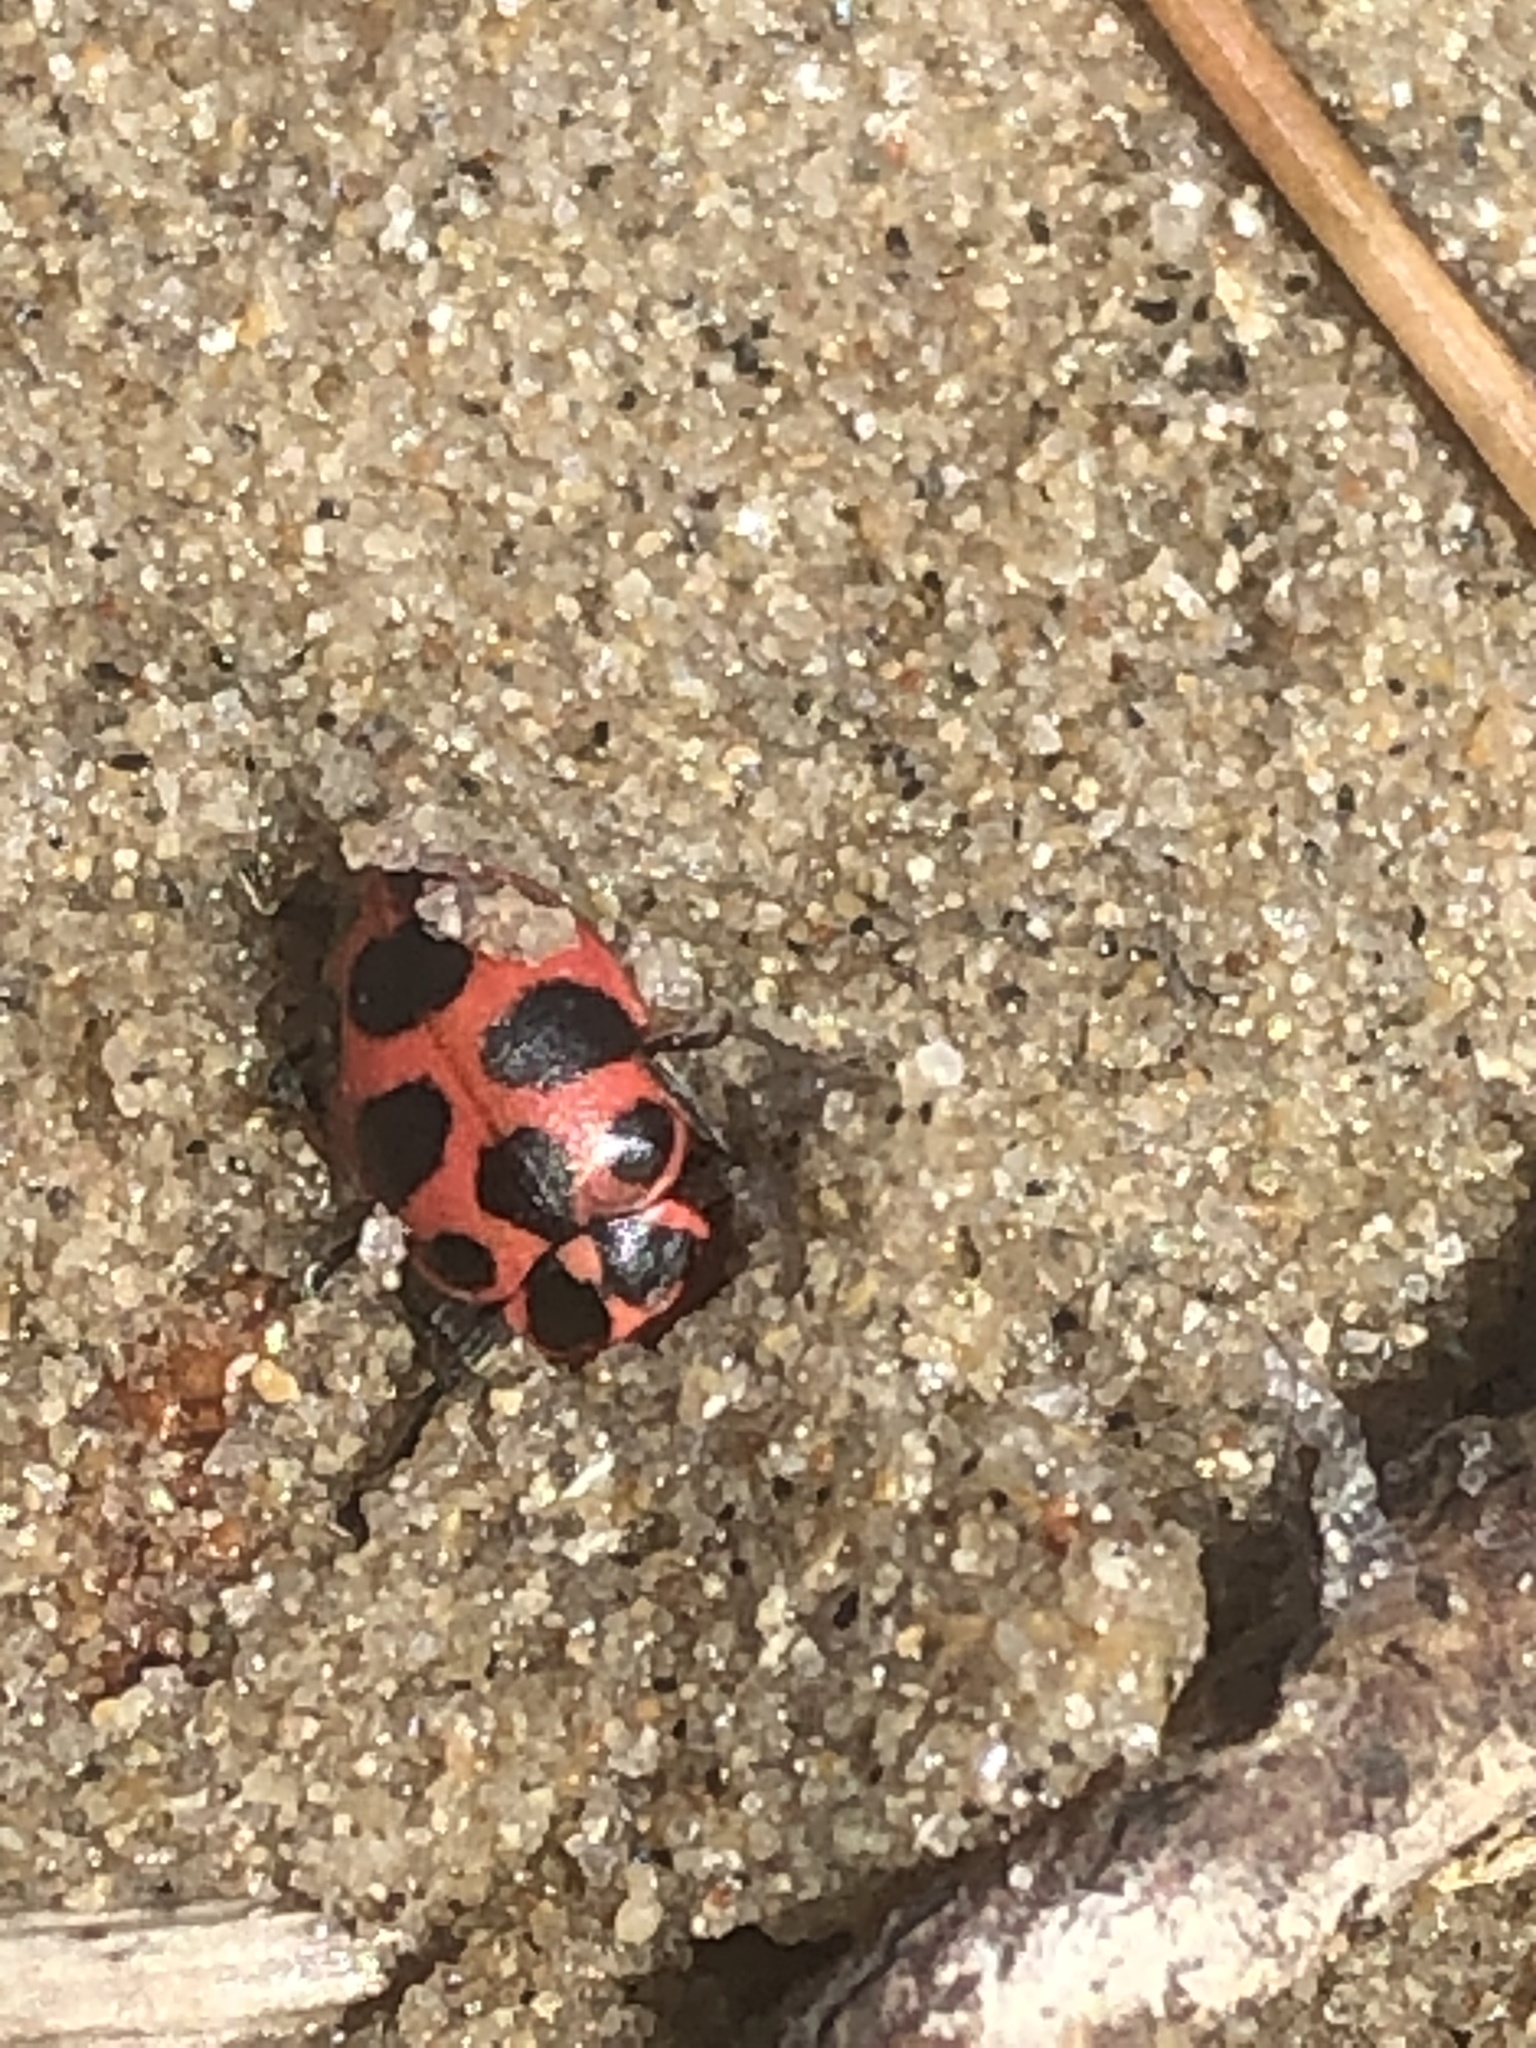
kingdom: Animalia
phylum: Arthropoda
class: Insecta
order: Coleoptera
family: Coccinellidae
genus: Coleomegilla
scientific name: Coleomegilla maculata
